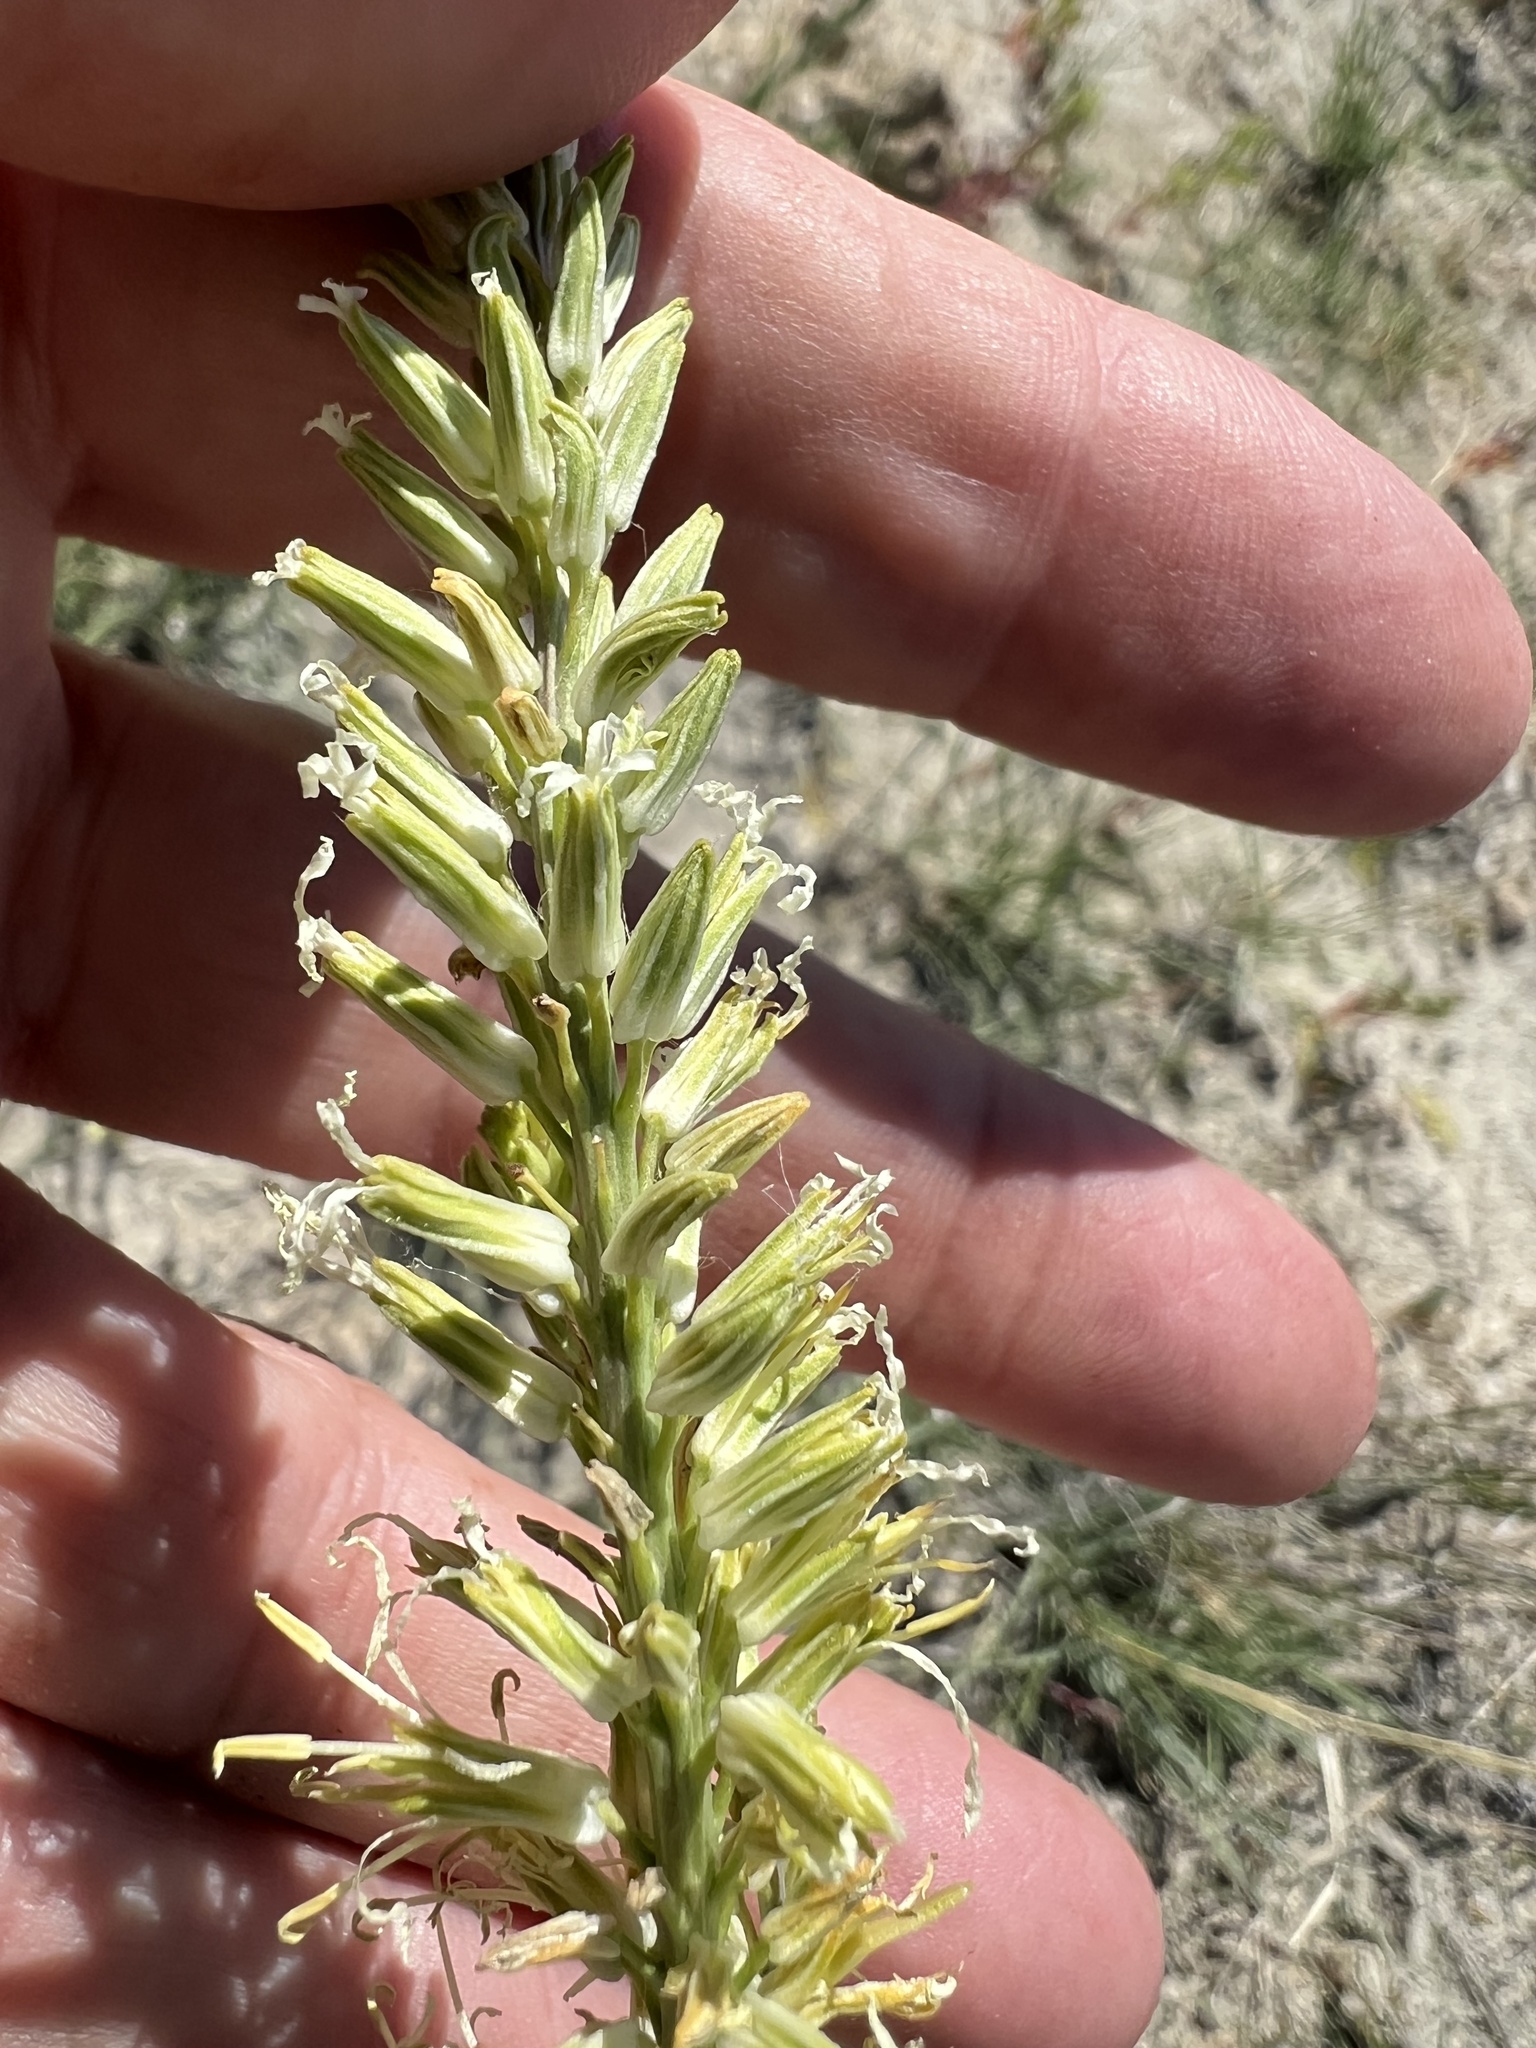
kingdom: Plantae
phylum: Tracheophyta
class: Magnoliopsida
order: Brassicales
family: Brassicaceae
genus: Thelypodium
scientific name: Thelypodium crispum
